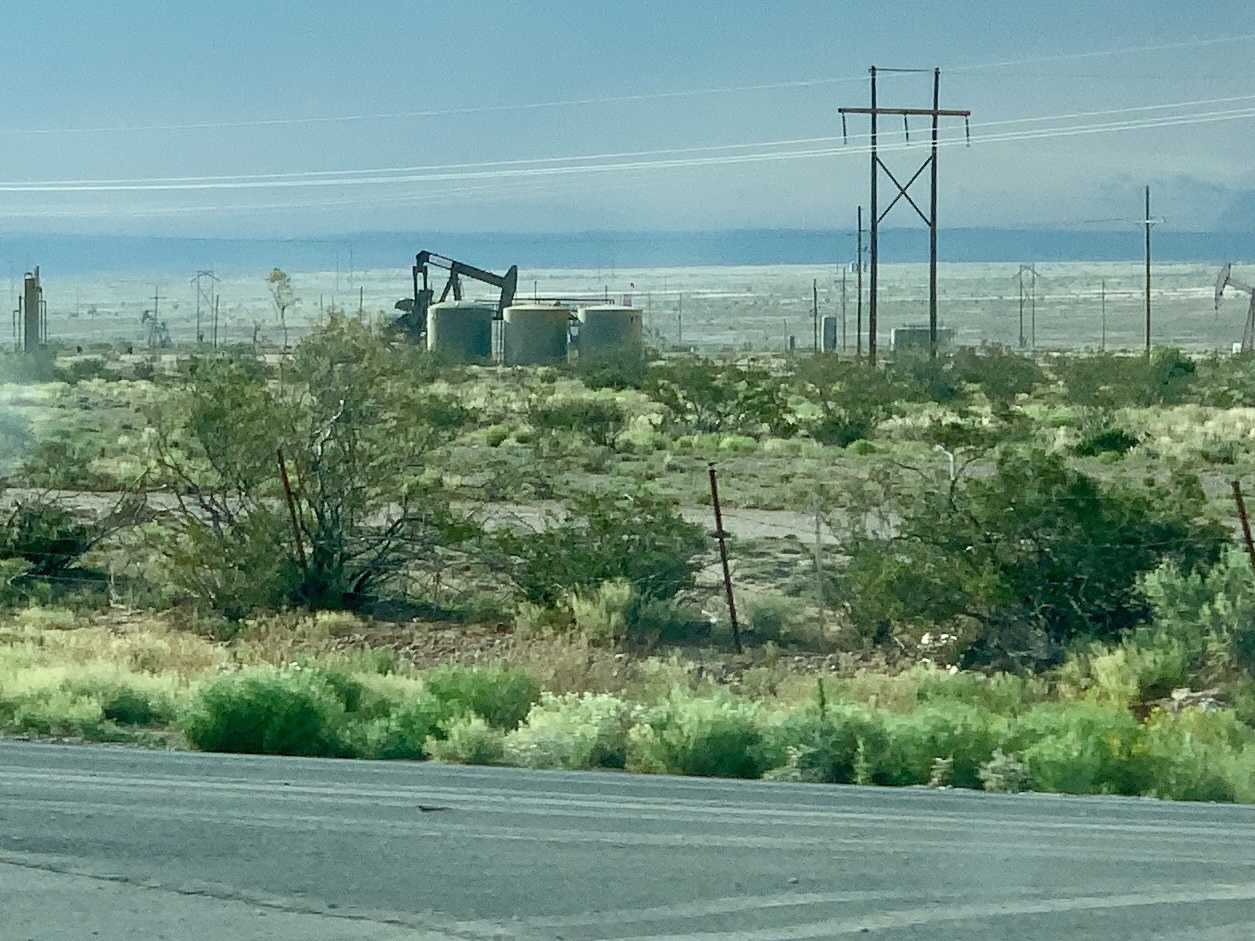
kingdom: Plantae
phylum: Tracheophyta
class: Magnoliopsida
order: Zygophyllales
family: Zygophyllaceae
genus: Larrea
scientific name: Larrea tridentata
